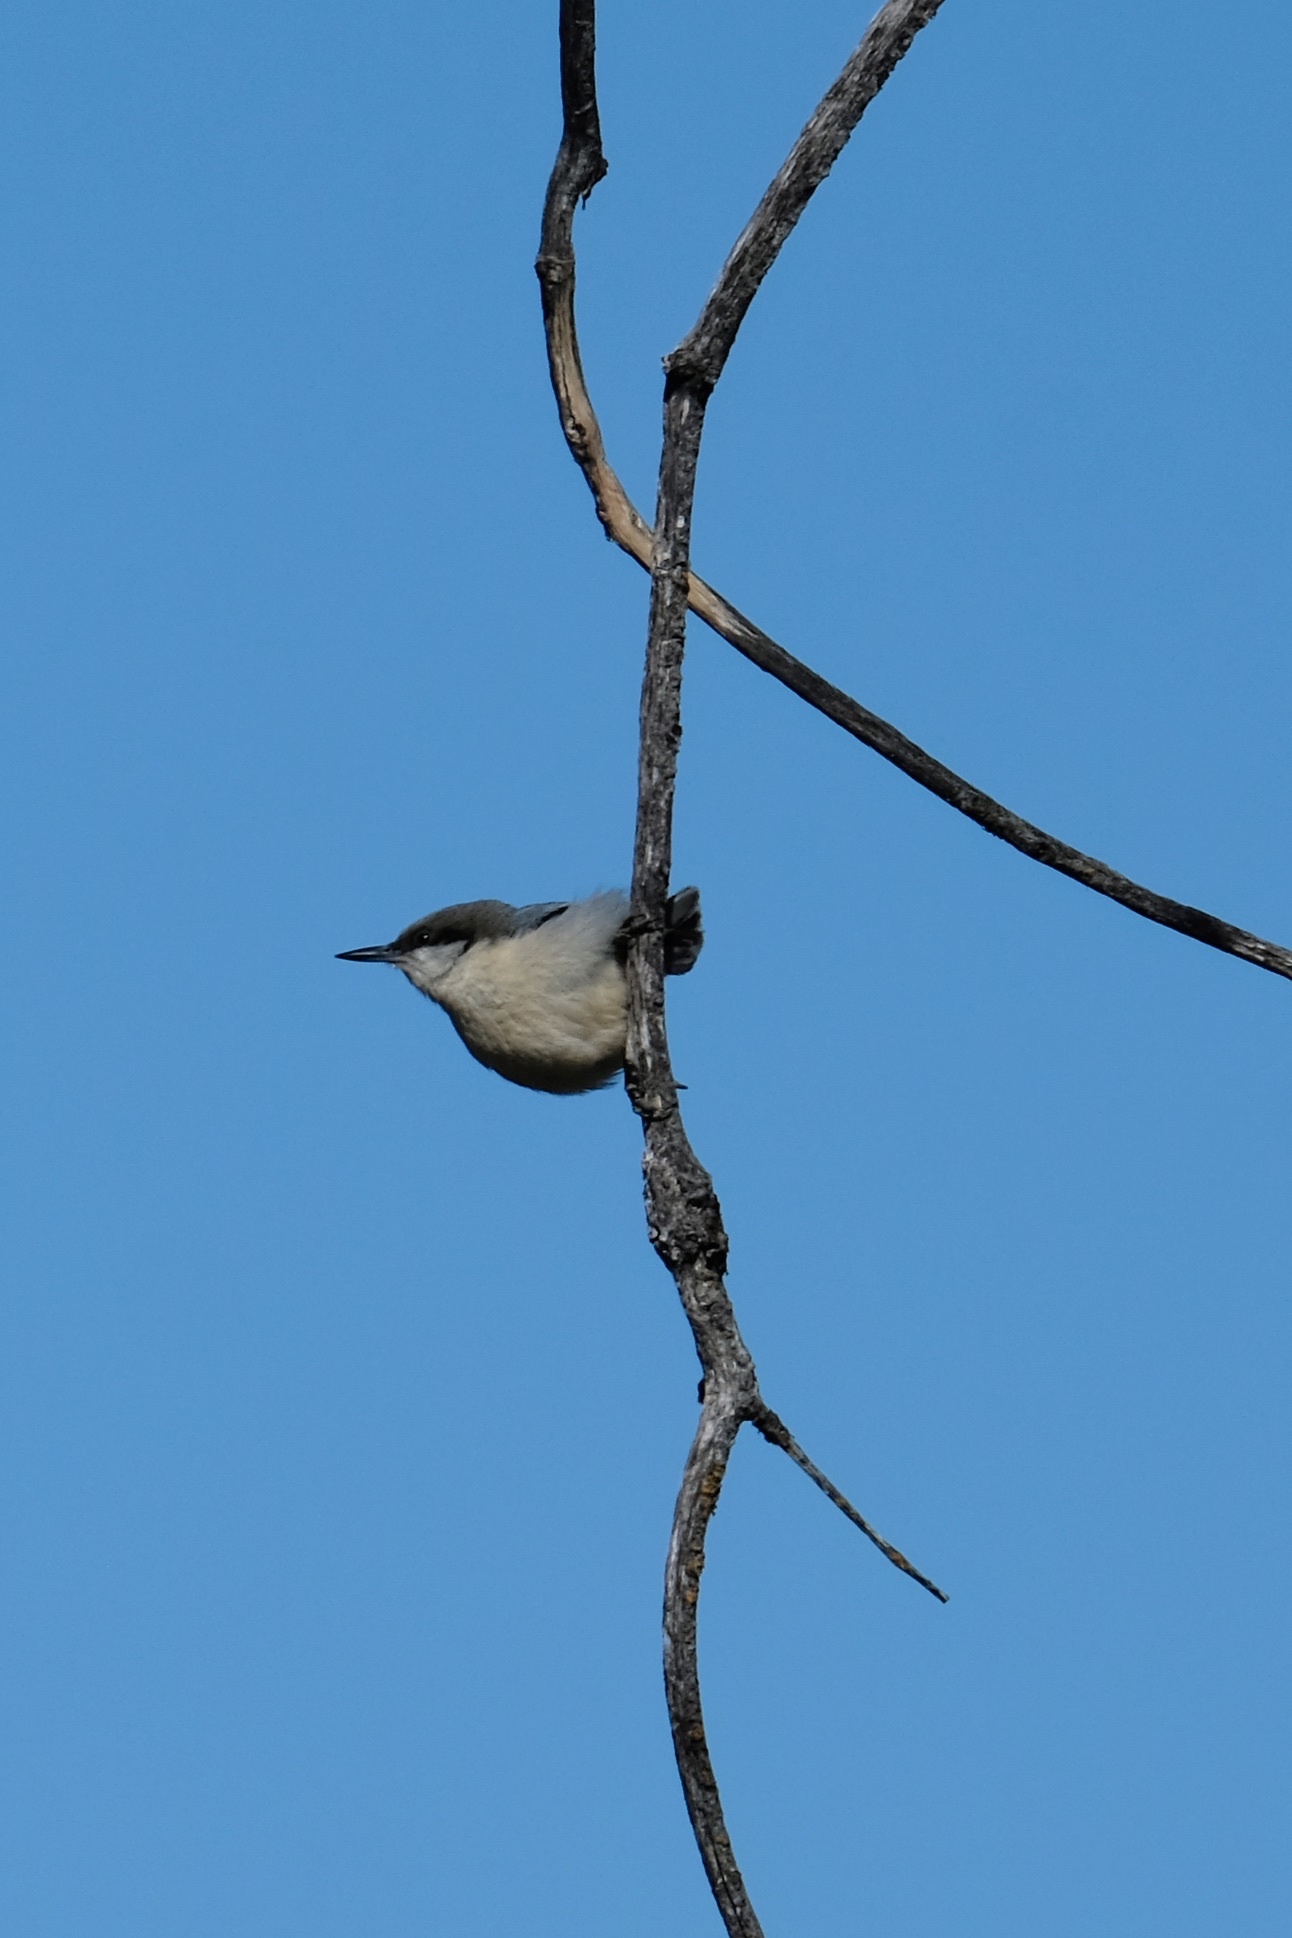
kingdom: Animalia
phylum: Chordata
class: Aves
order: Passeriformes
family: Sittidae
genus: Sitta
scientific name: Sitta pygmaea
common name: Pygmy nuthatch
